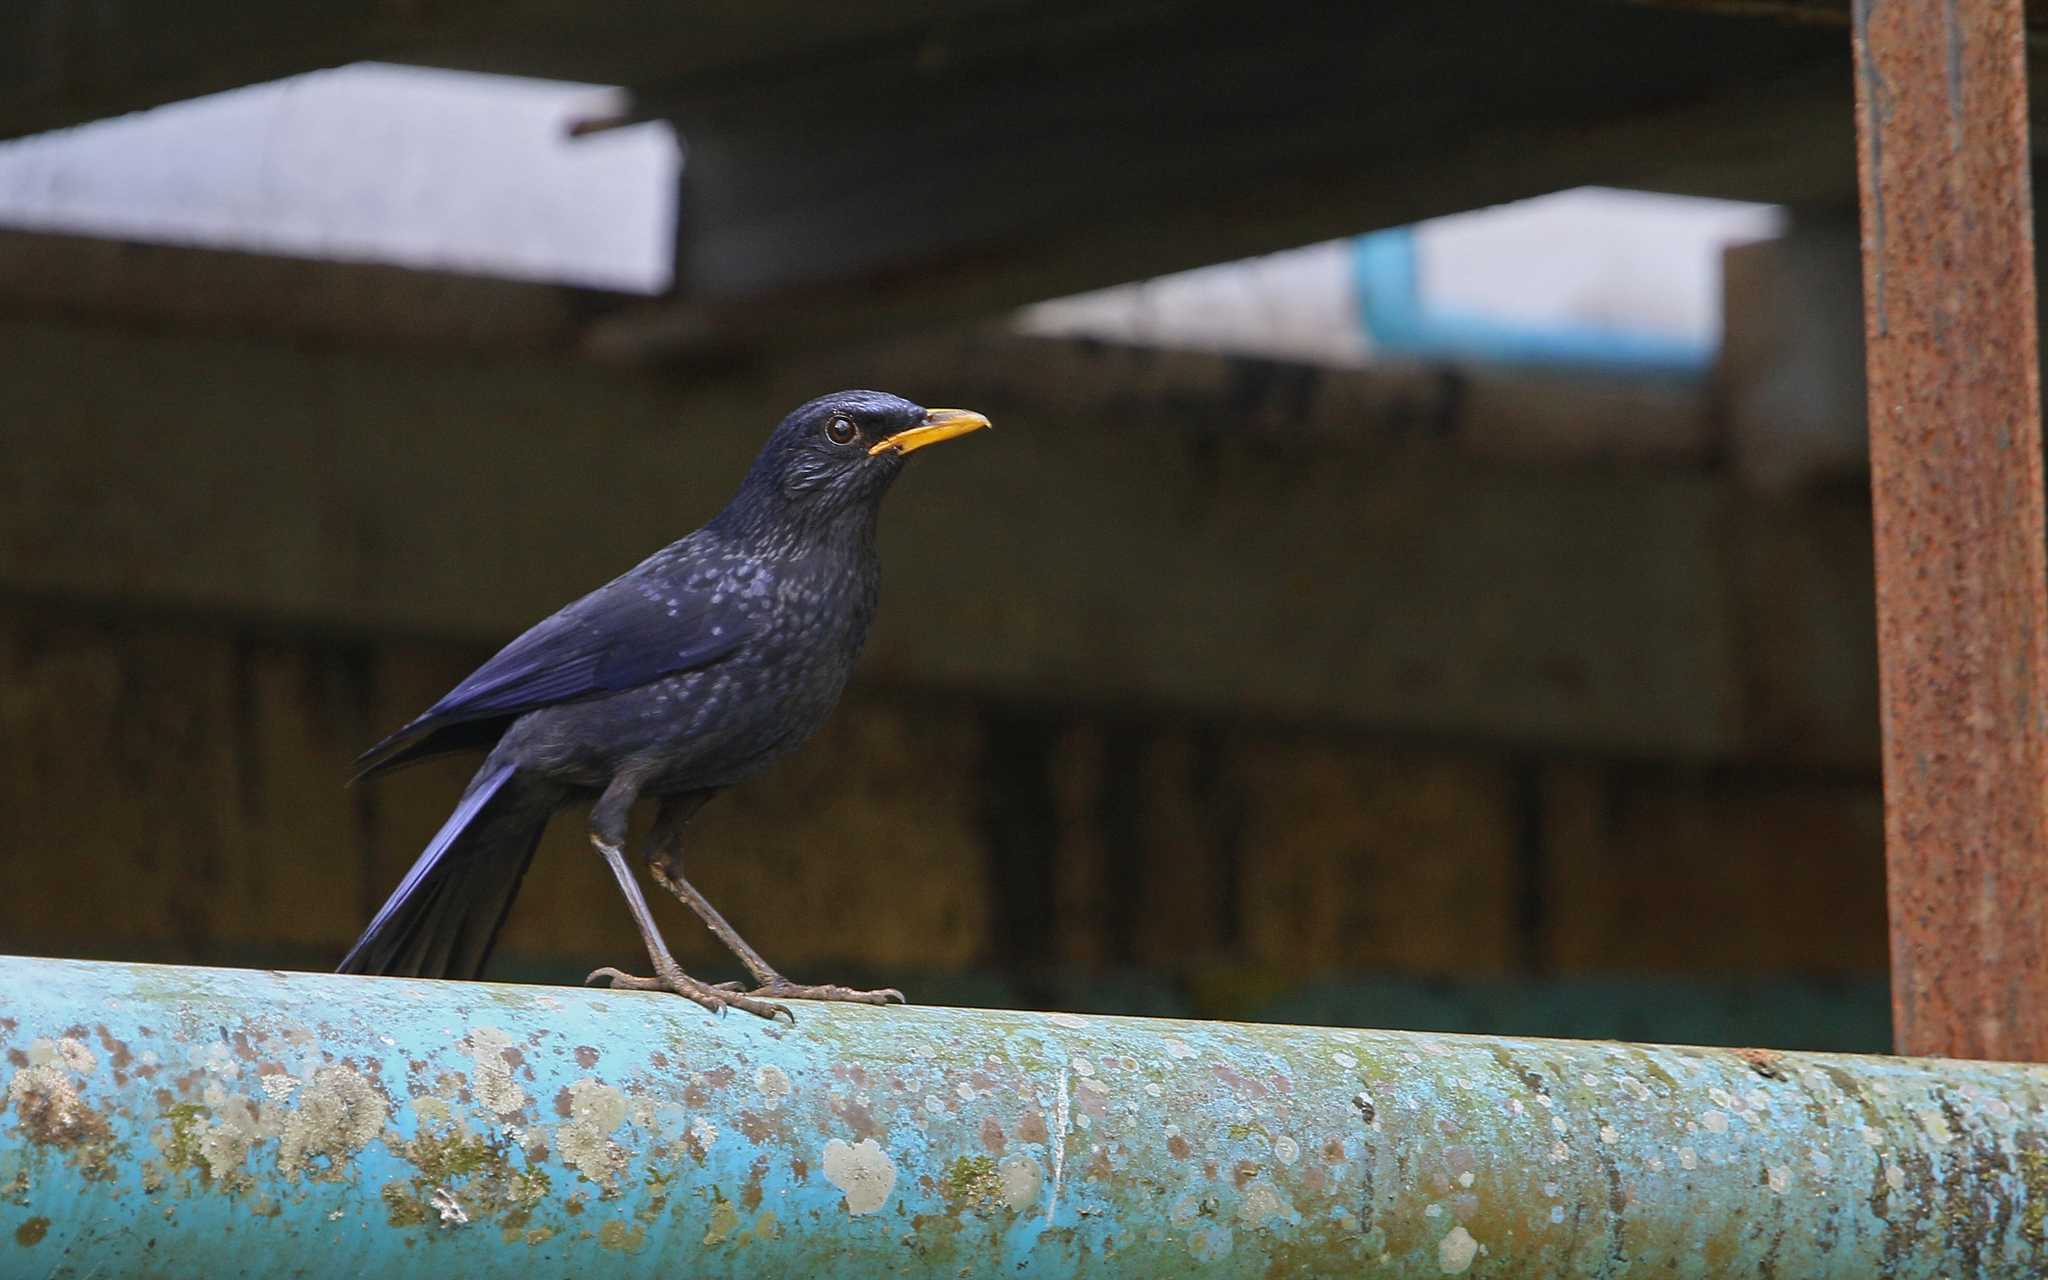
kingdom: Animalia
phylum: Chordata
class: Aves
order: Passeriformes
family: Muscicapidae
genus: Myophonus
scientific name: Myophonus caeruleus
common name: Blue whistling-thrush
